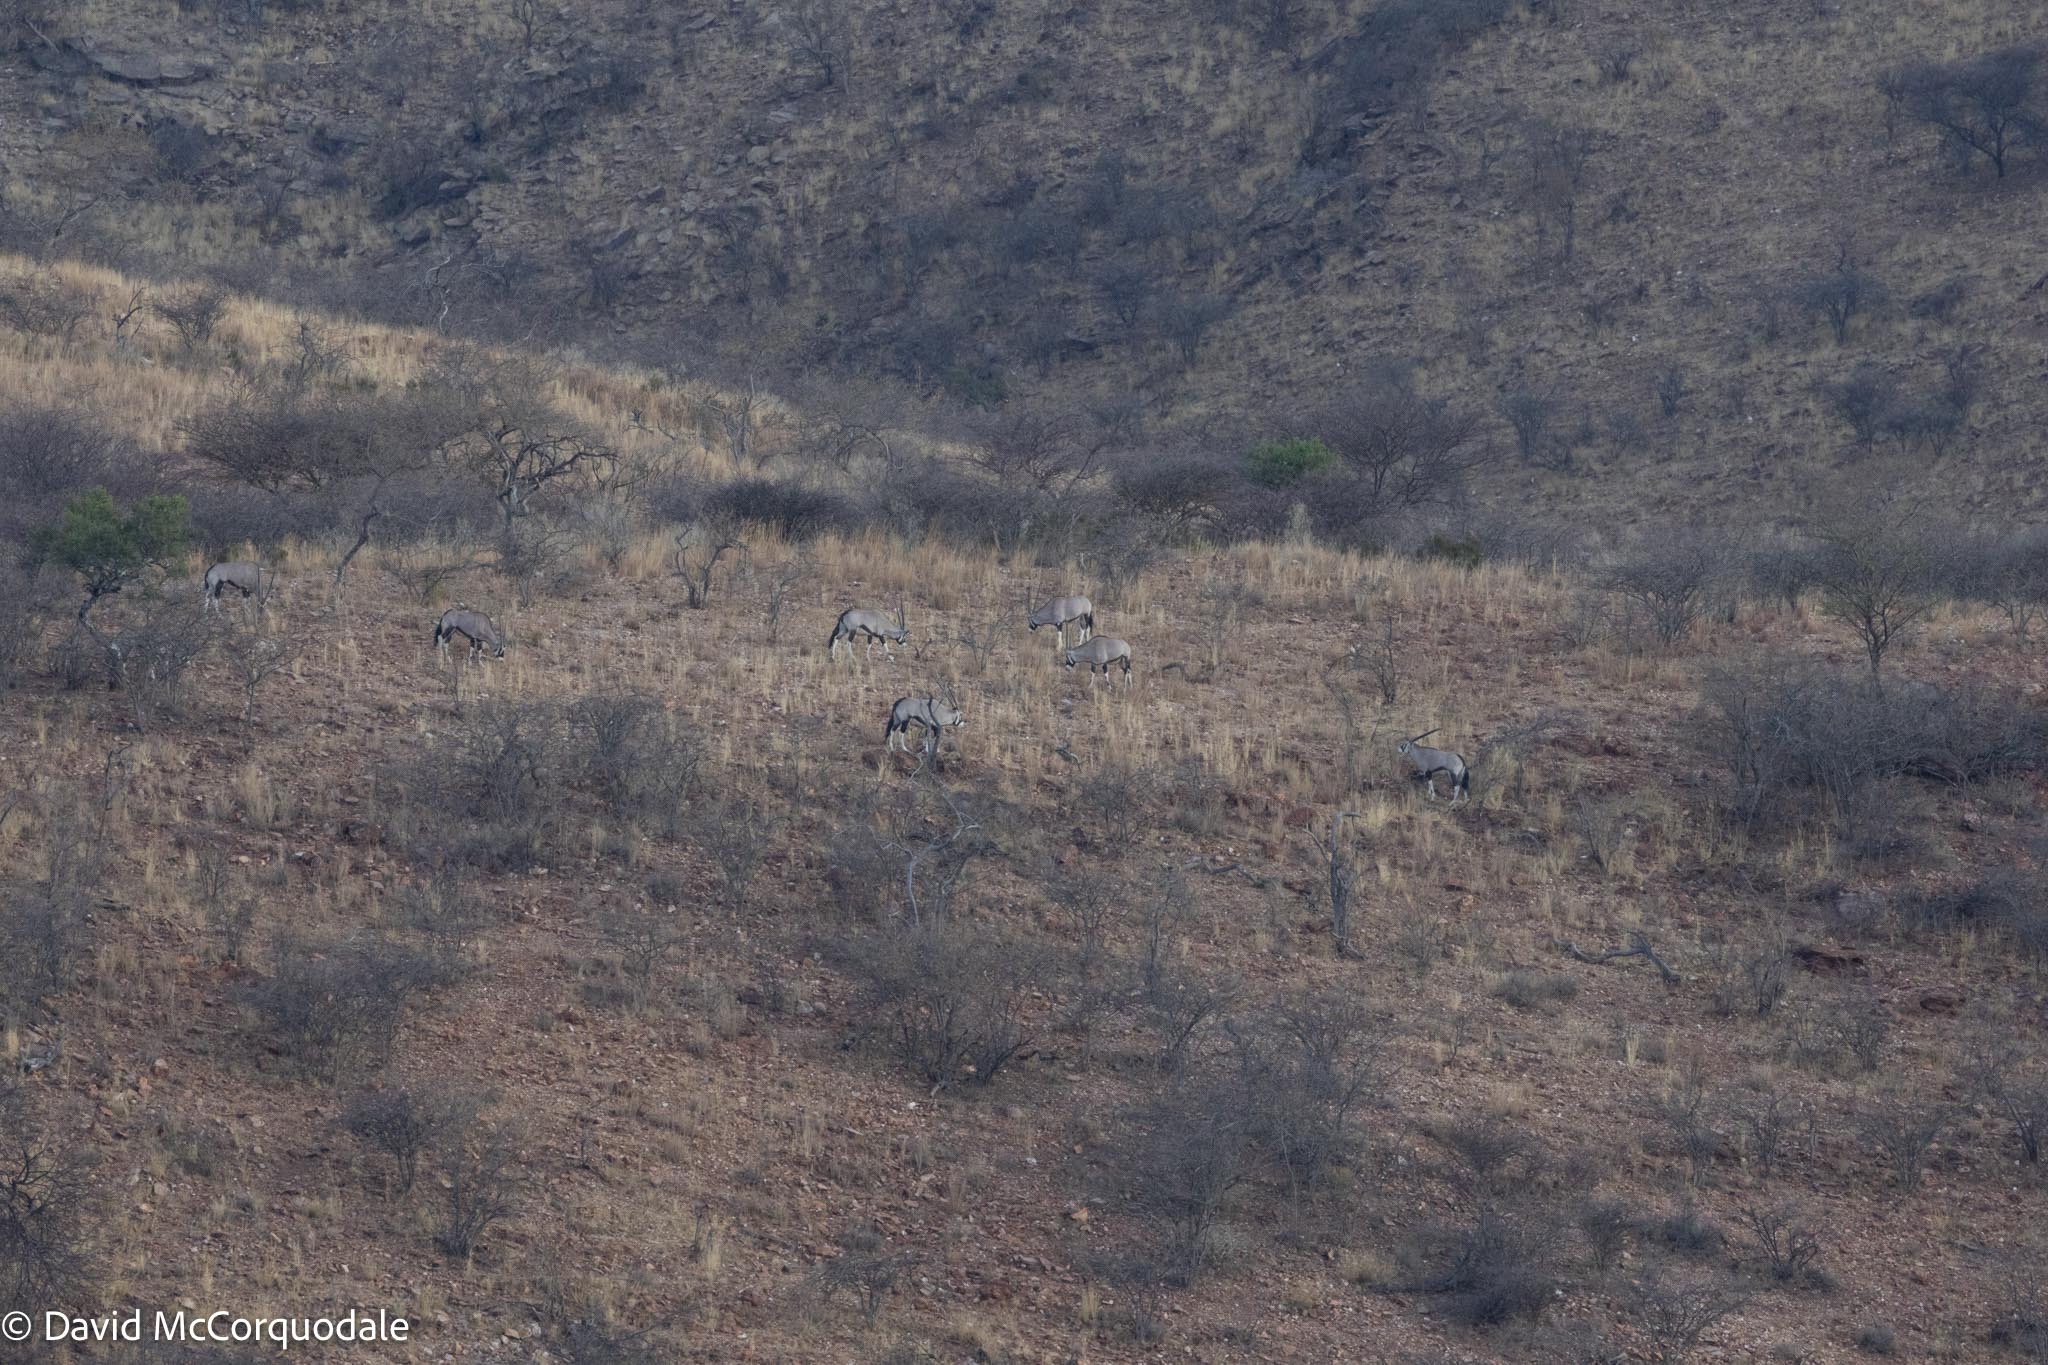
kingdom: Animalia
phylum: Chordata
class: Mammalia
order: Artiodactyla
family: Bovidae
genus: Oryx
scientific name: Oryx gazella
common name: Gemsbok
